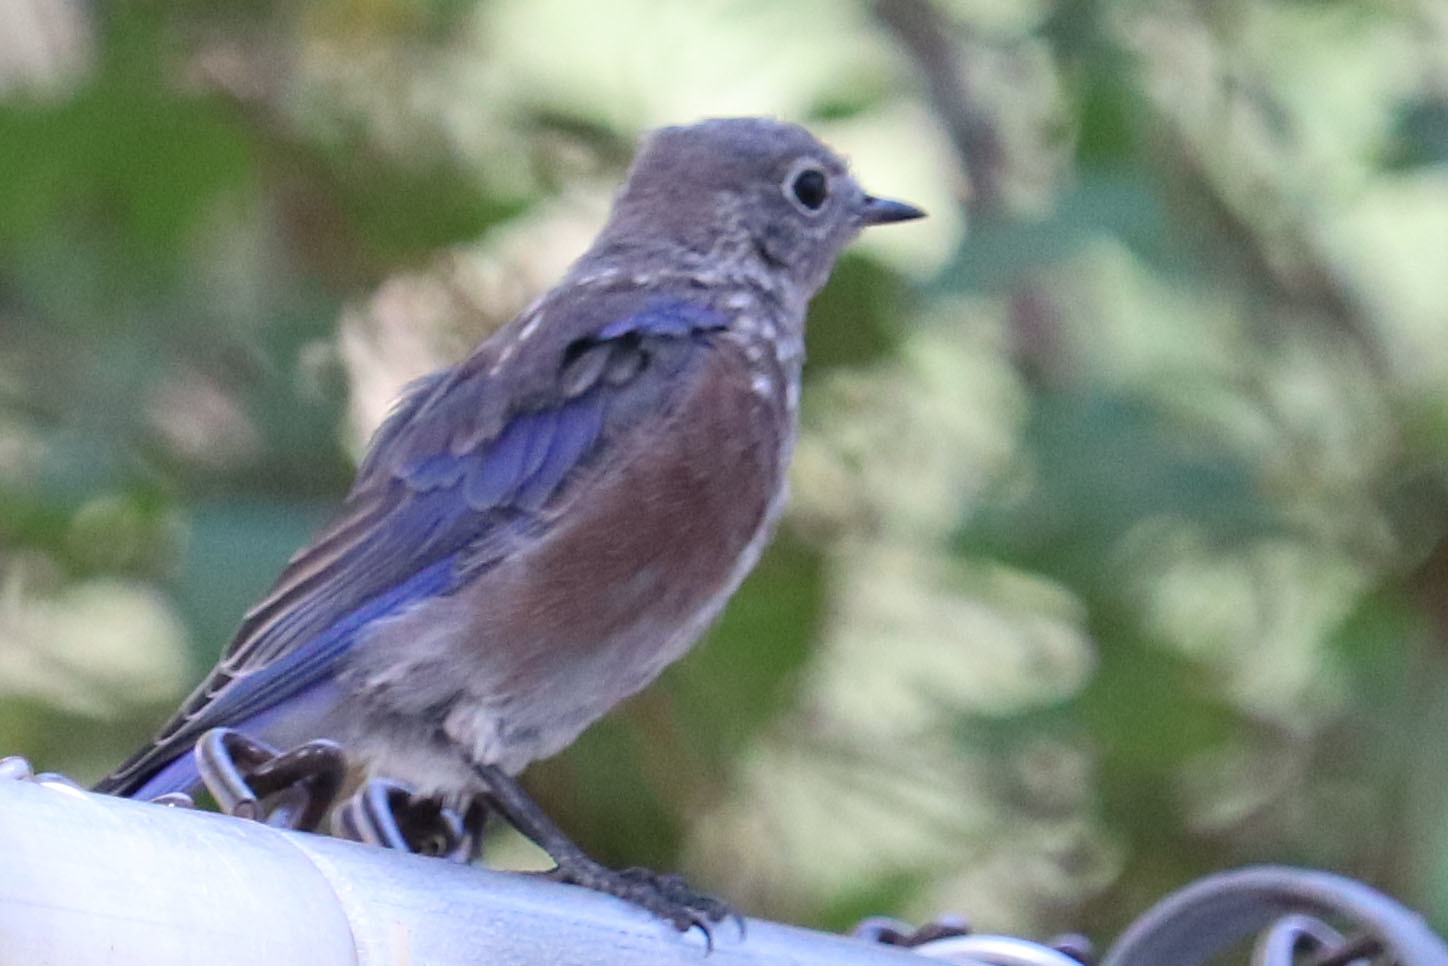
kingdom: Animalia
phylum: Chordata
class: Aves
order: Passeriformes
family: Turdidae
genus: Sialia
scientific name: Sialia mexicana
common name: Western bluebird
